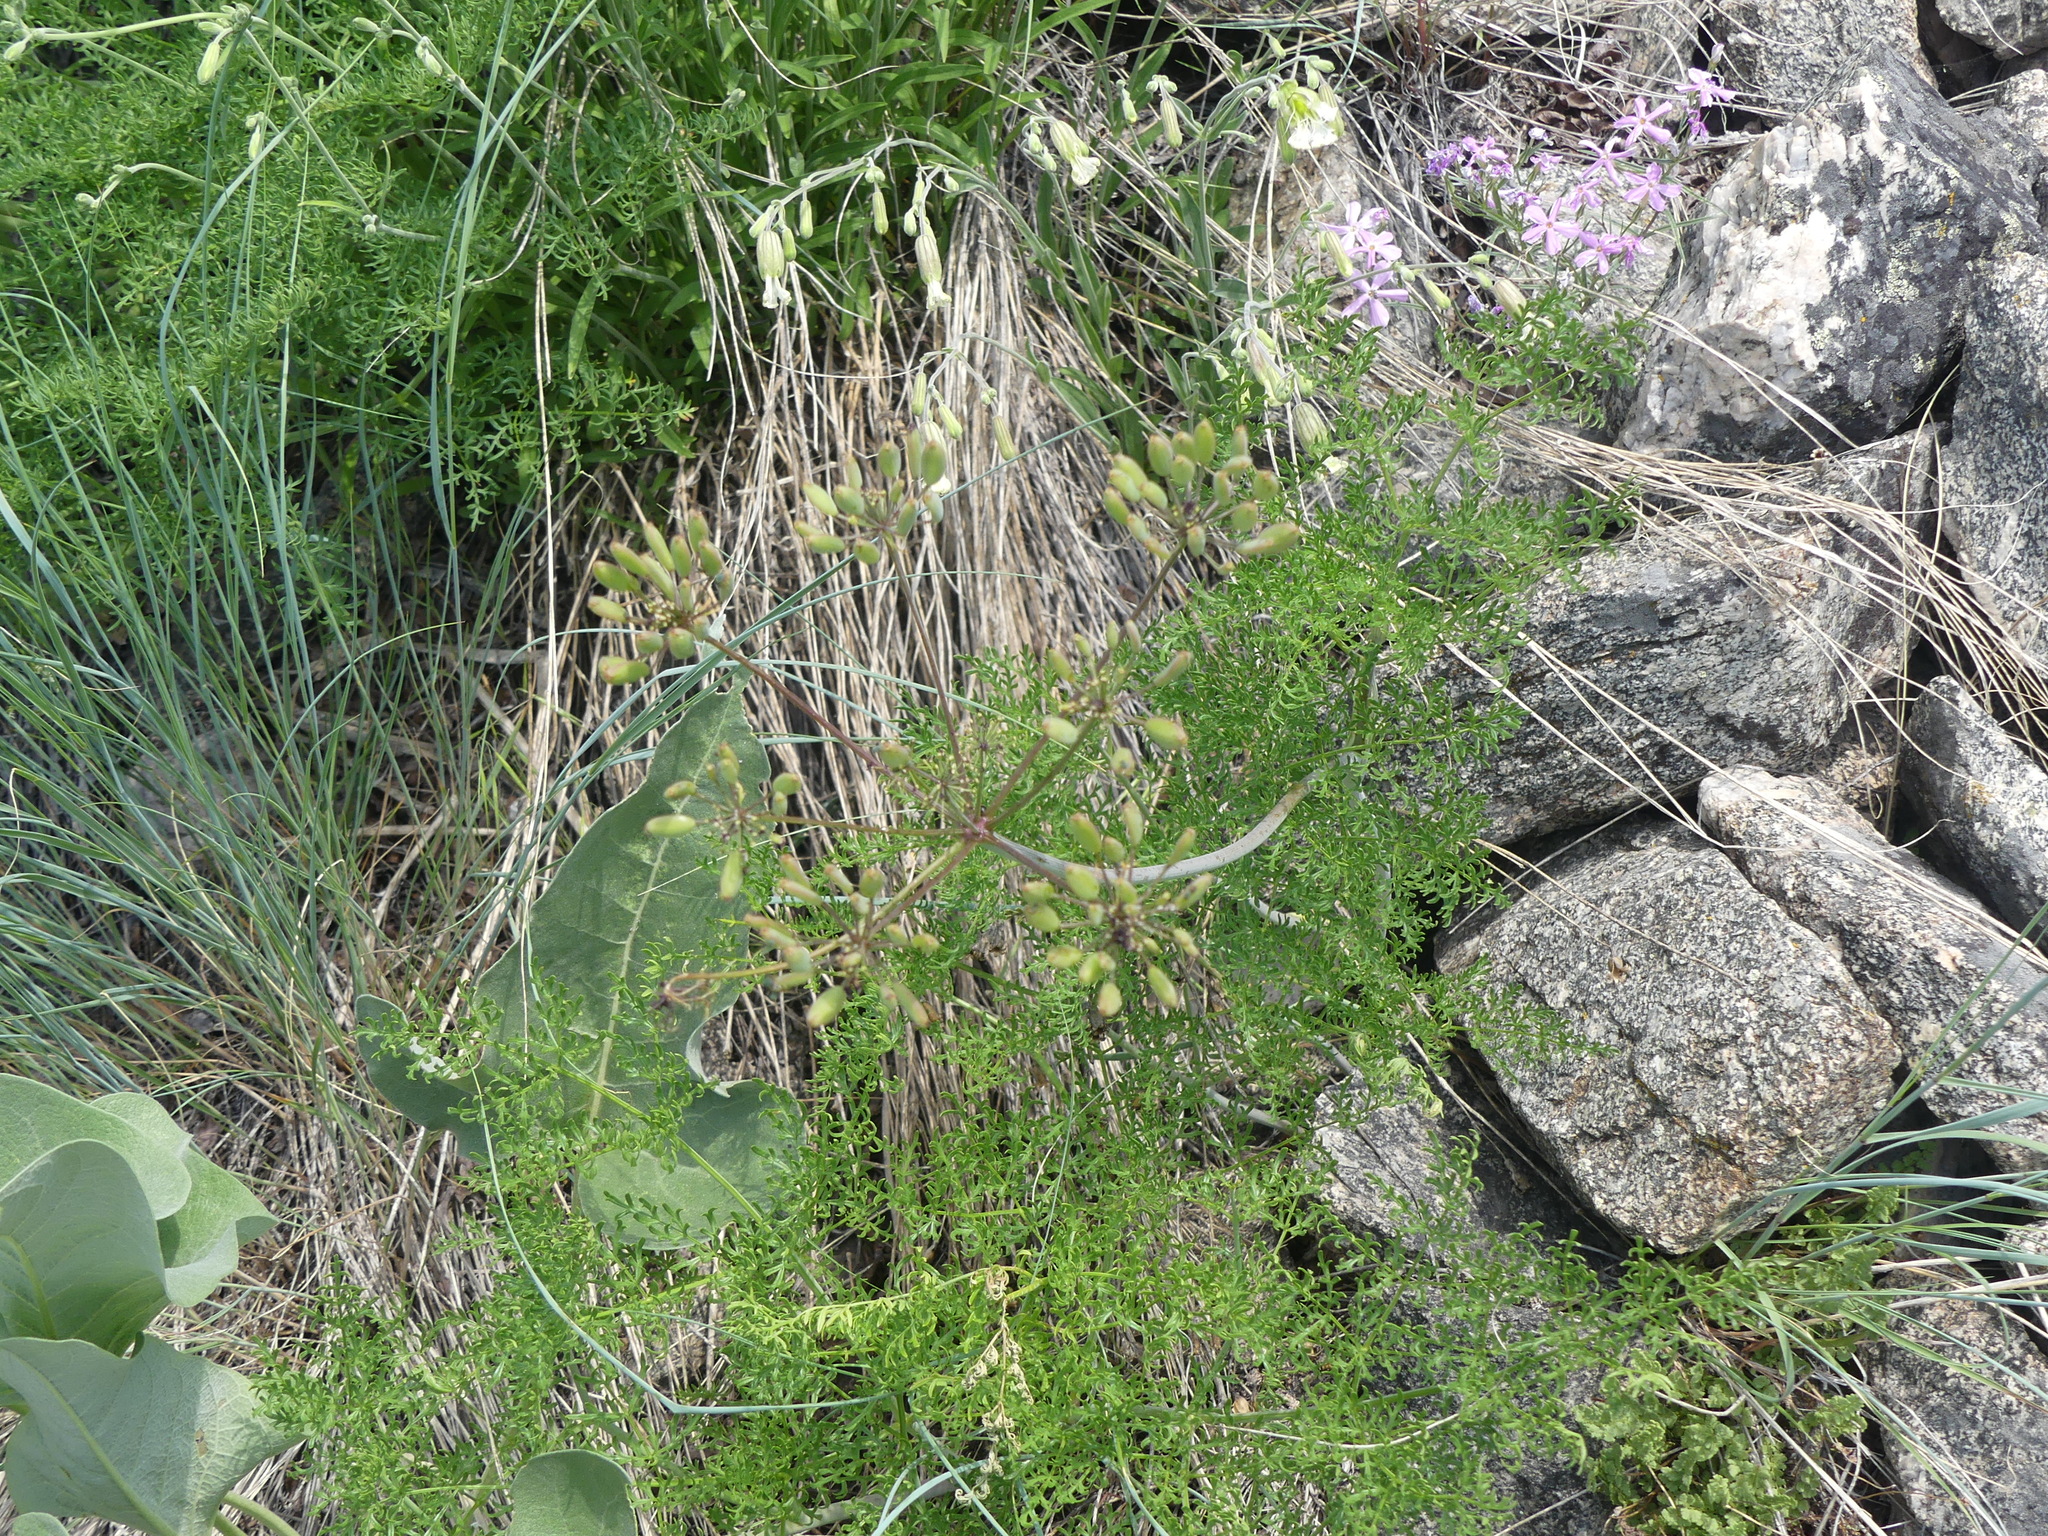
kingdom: Plantae
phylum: Tracheophyta
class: Magnoliopsida
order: Apiales
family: Apiaceae
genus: Lomatium
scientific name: Lomatium multifidum
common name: Carrot-leaved biscuitroot
